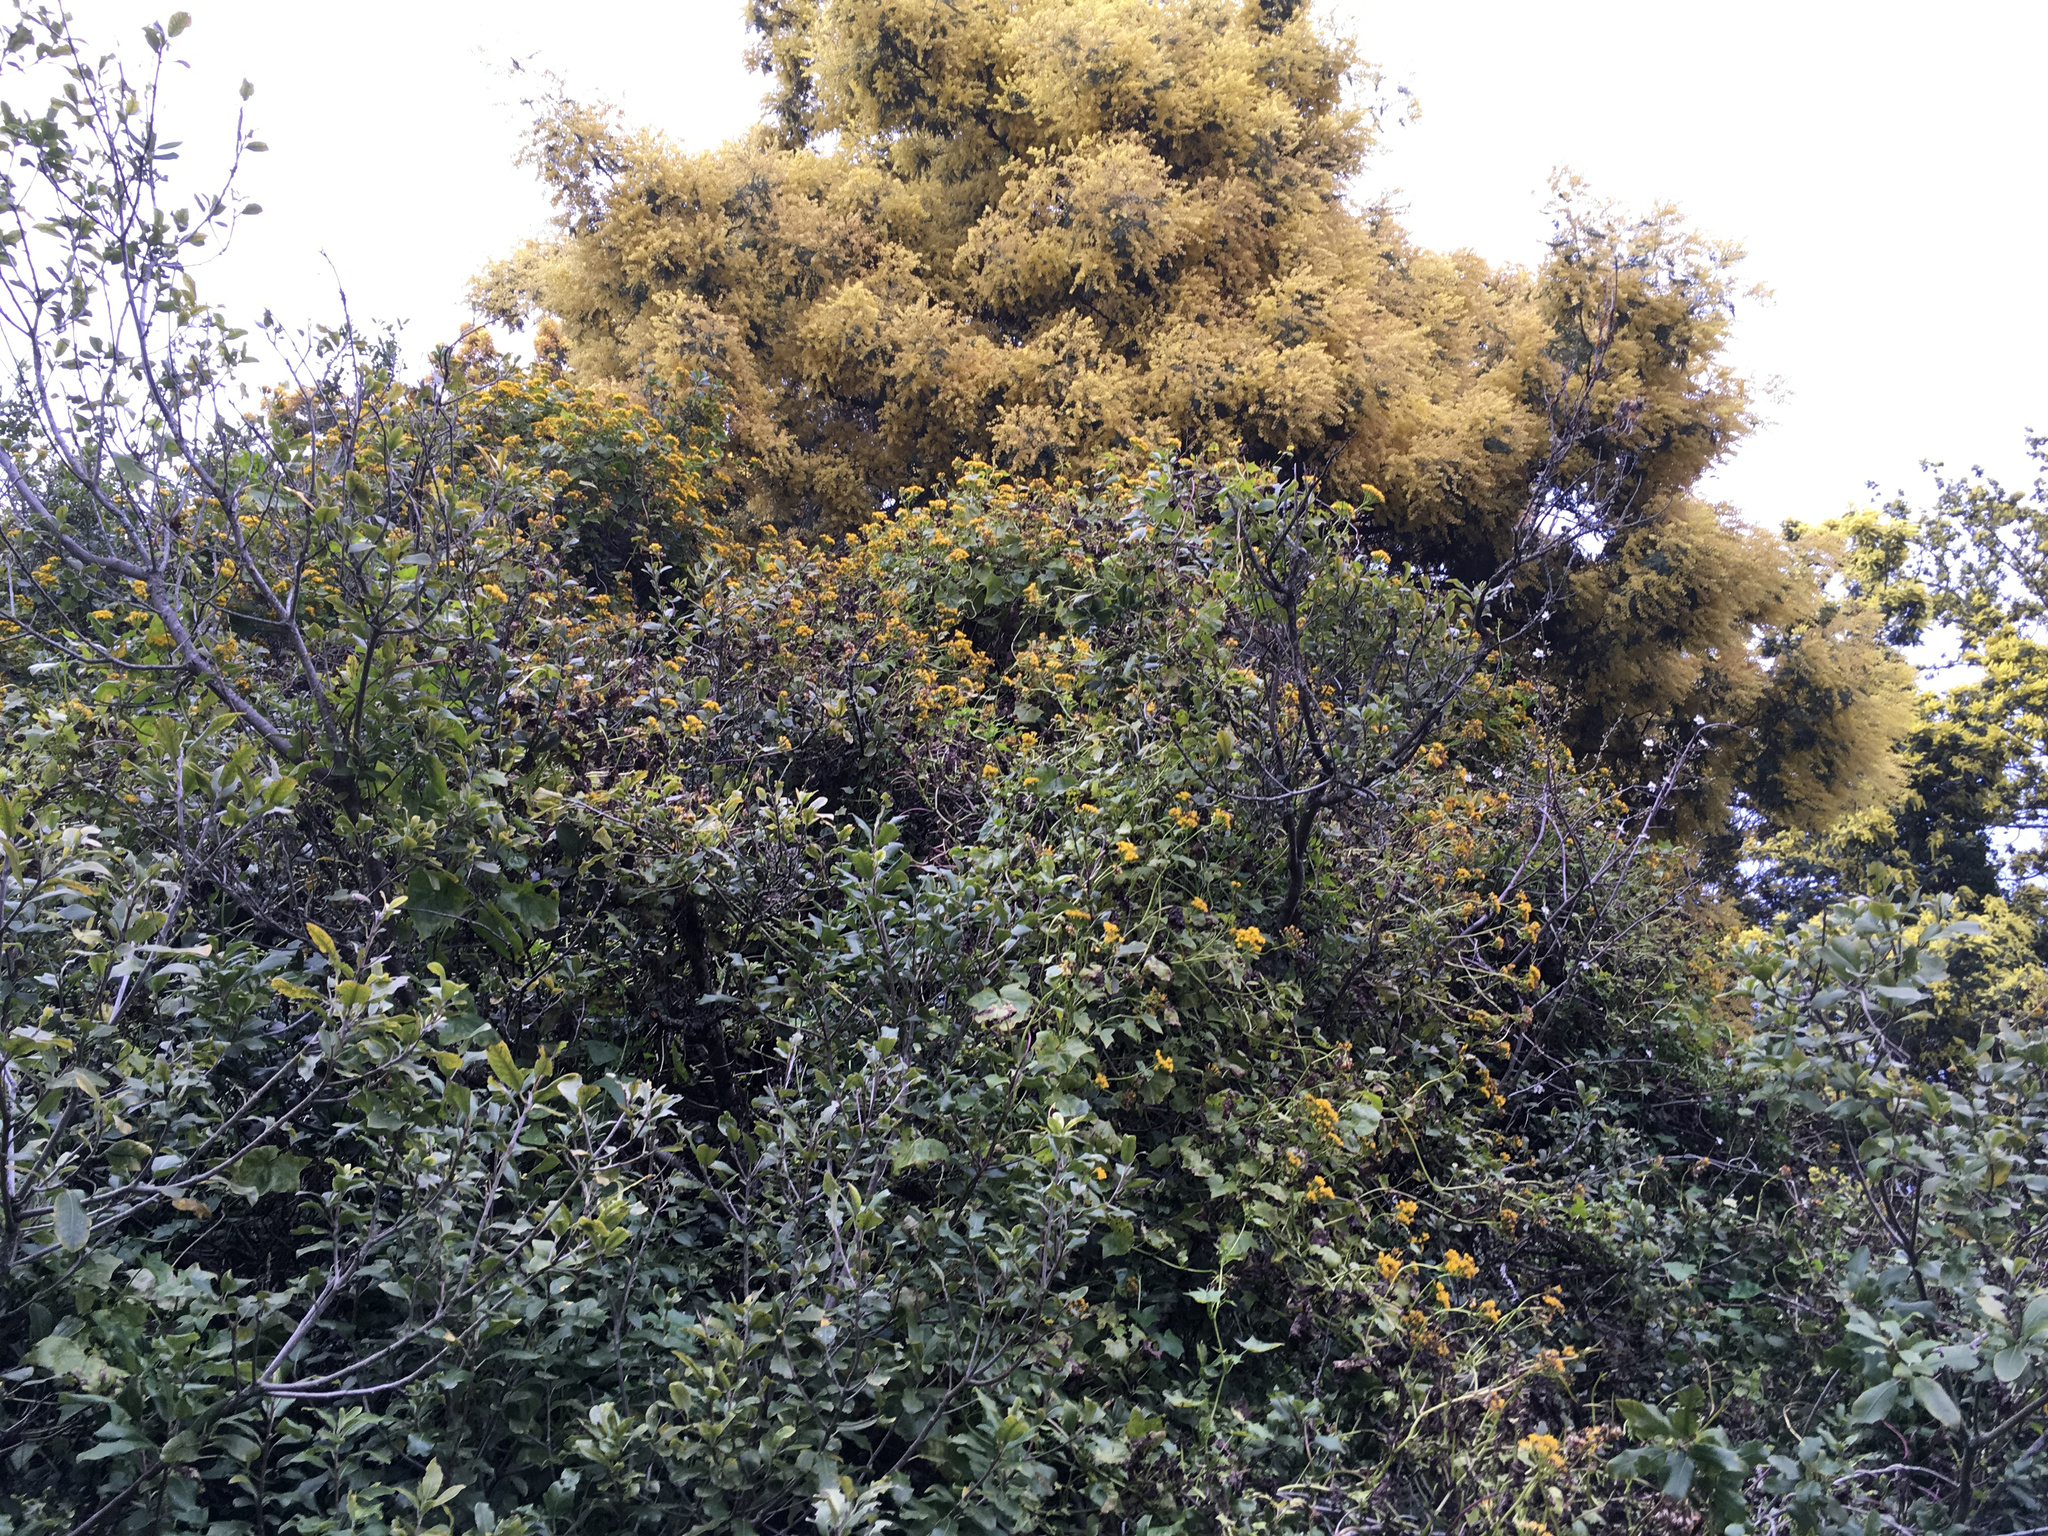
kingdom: Plantae
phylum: Tracheophyta
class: Magnoliopsida
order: Asterales
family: Asteraceae
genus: Delairea
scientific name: Delairea odorata
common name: Cape-ivy
